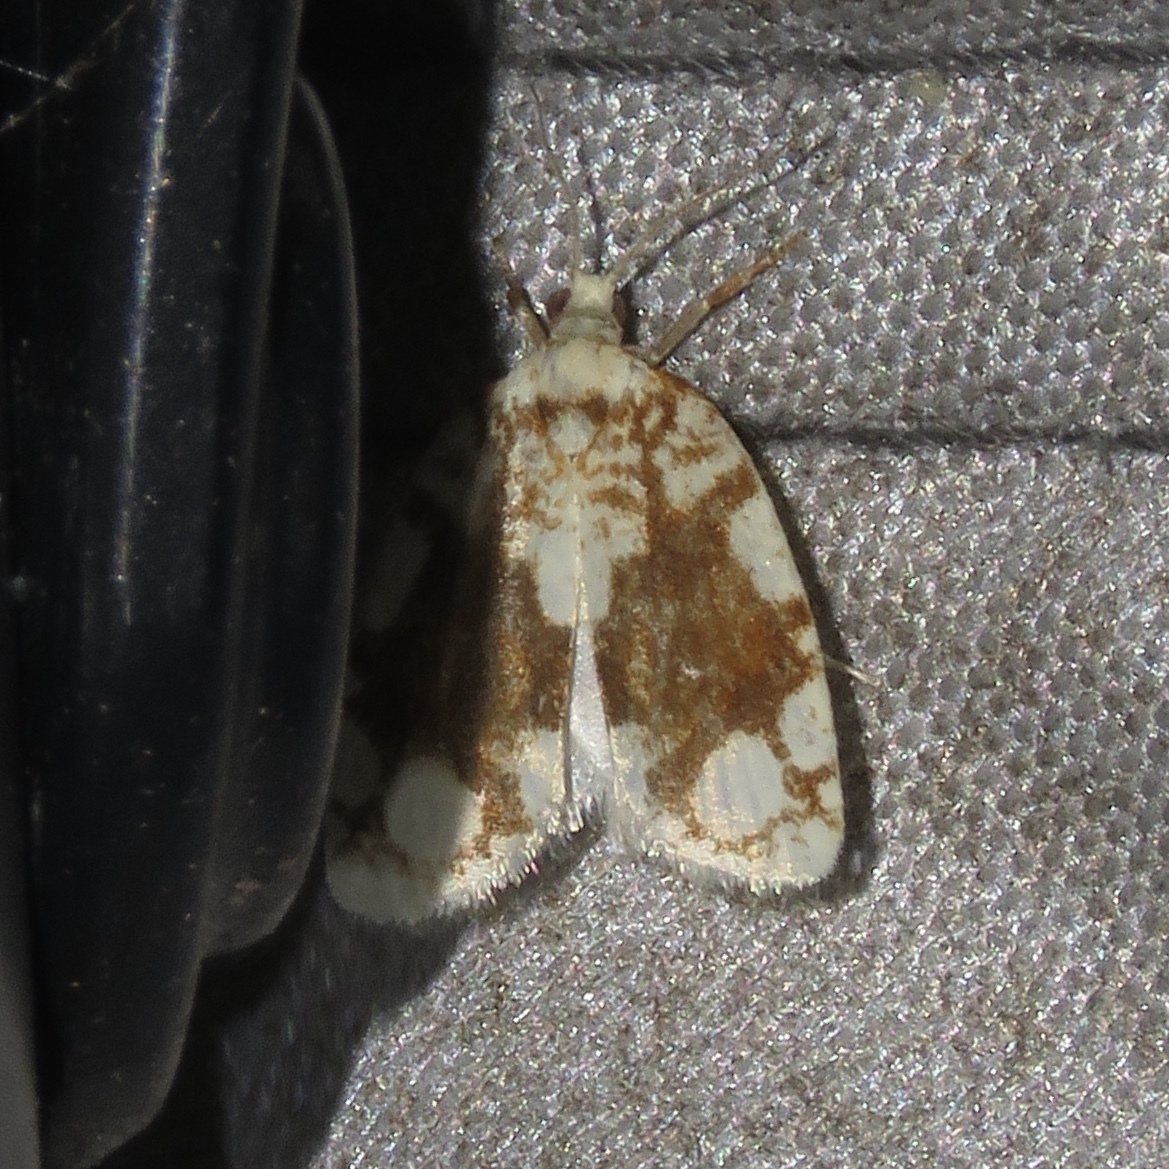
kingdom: Animalia
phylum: Arthropoda
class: Insecta
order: Lepidoptera
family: Tortricidae
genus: Argyrotaenia
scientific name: Argyrotaenia alisellana
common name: White-spotted leafroller moth
